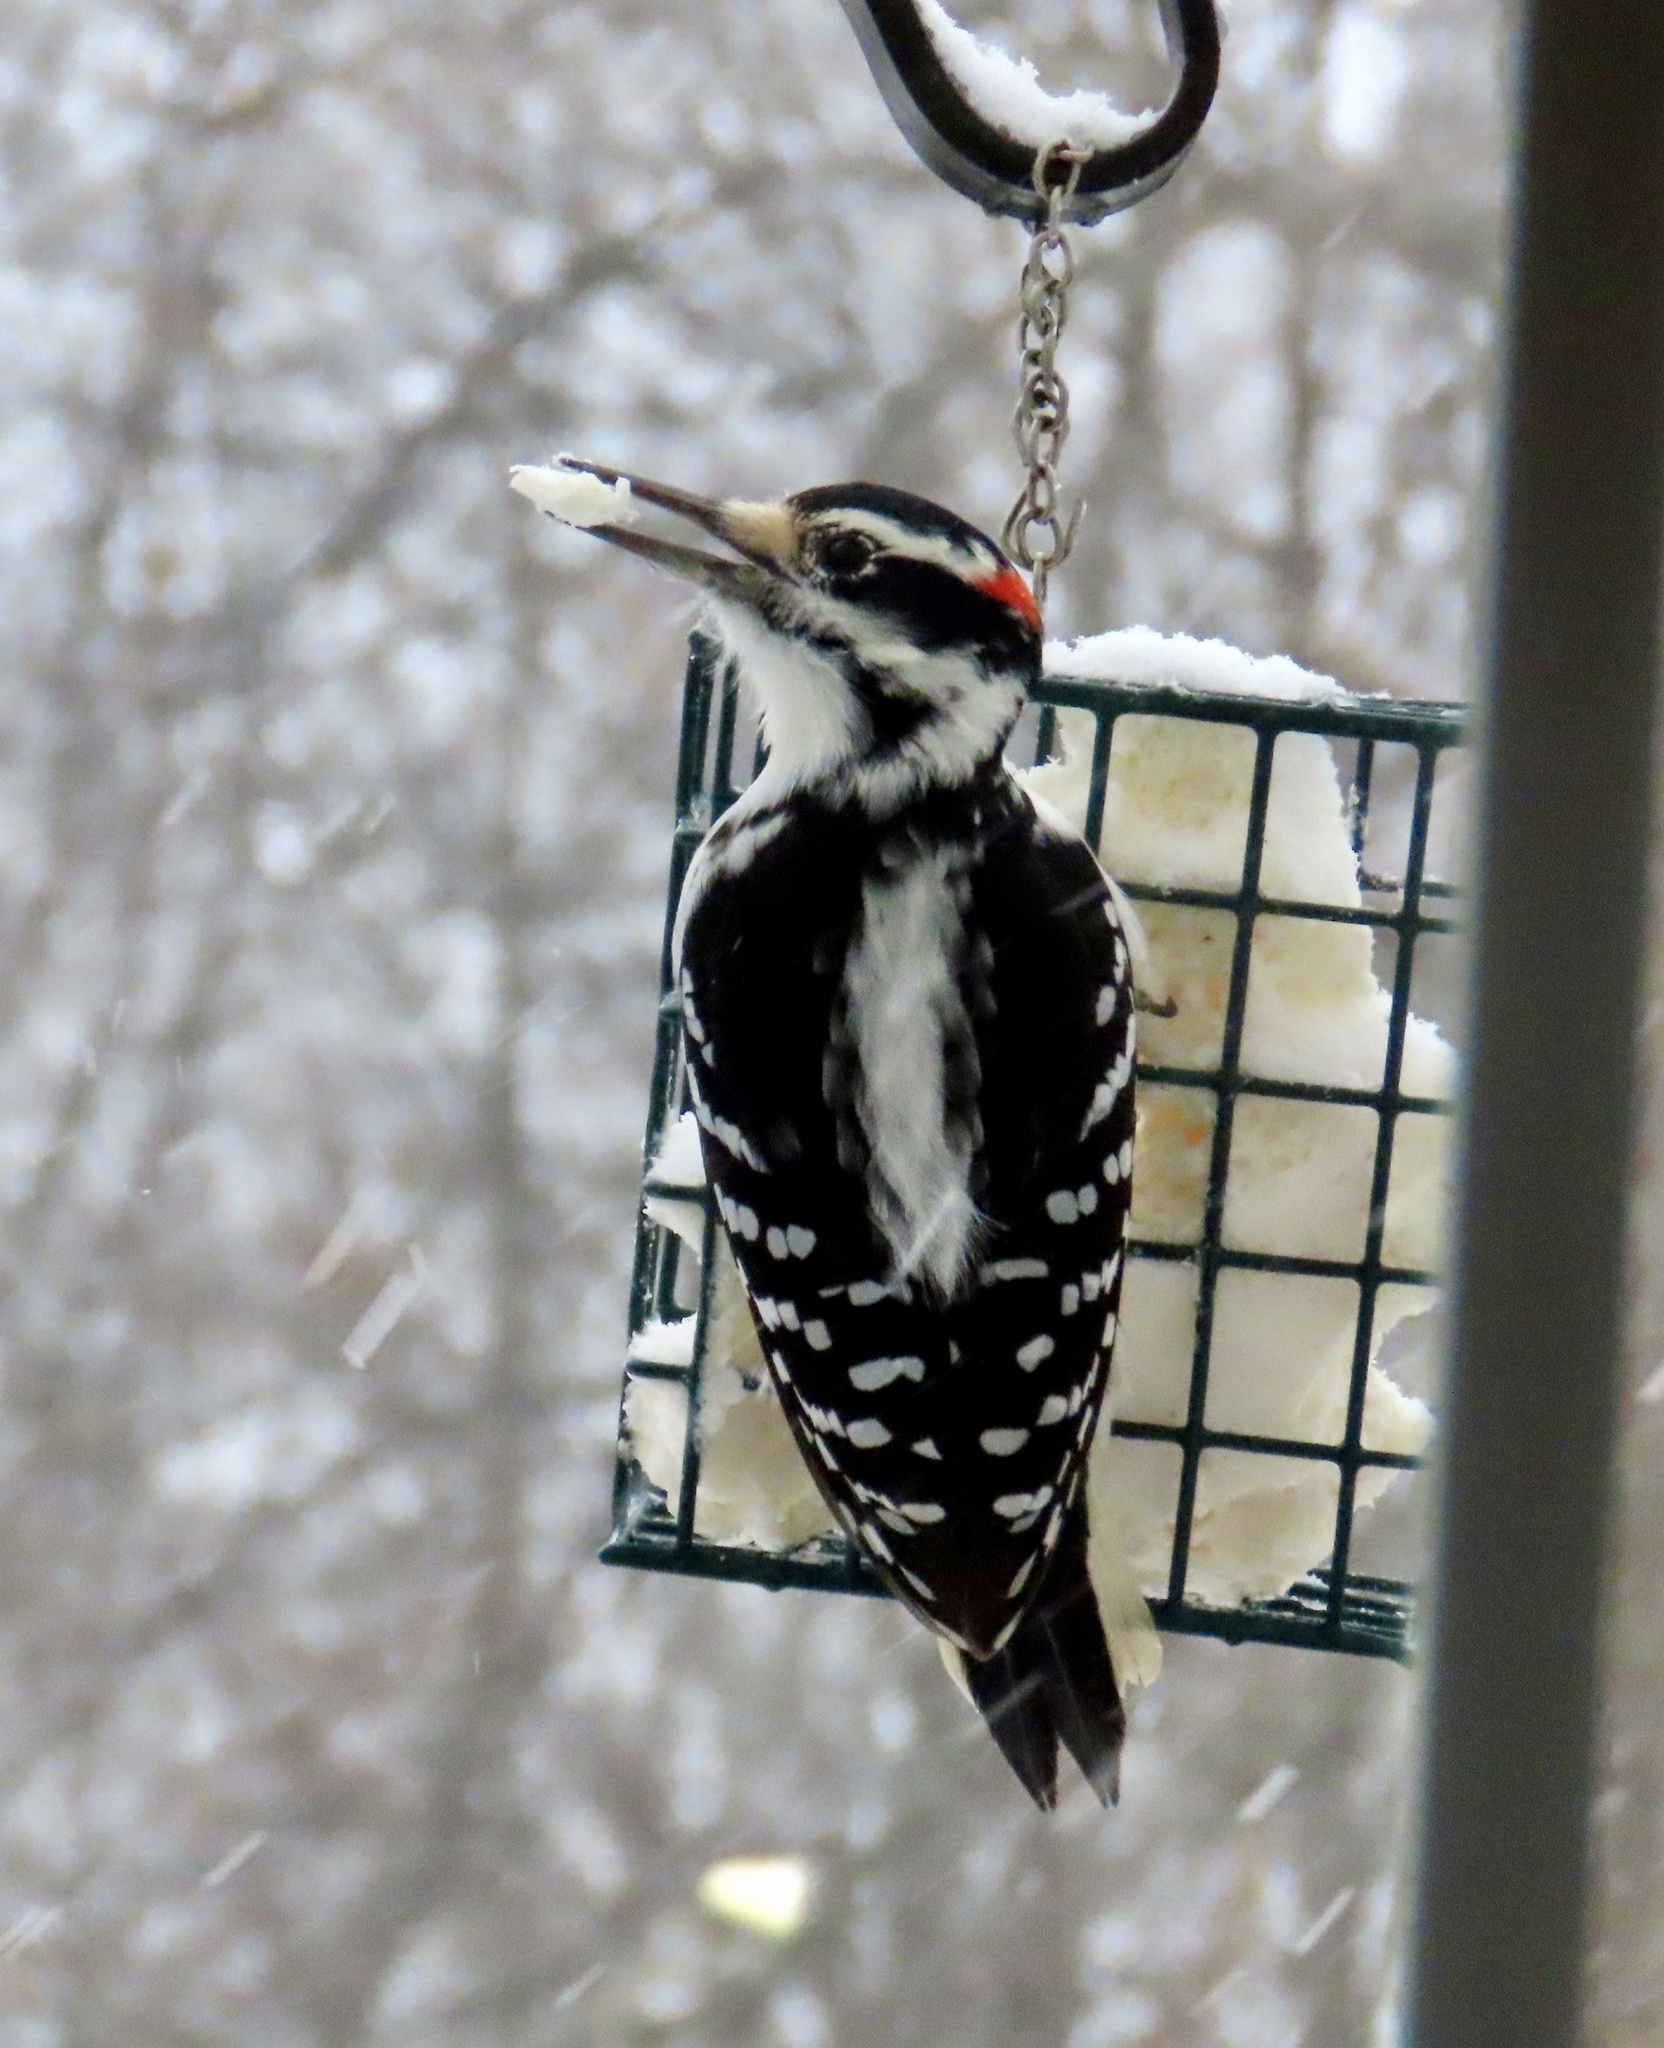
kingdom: Animalia
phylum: Chordata
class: Aves
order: Piciformes
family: Picidae
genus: Leuconotopicus
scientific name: Leuconotopicus villosus
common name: Hairy woodpecker
